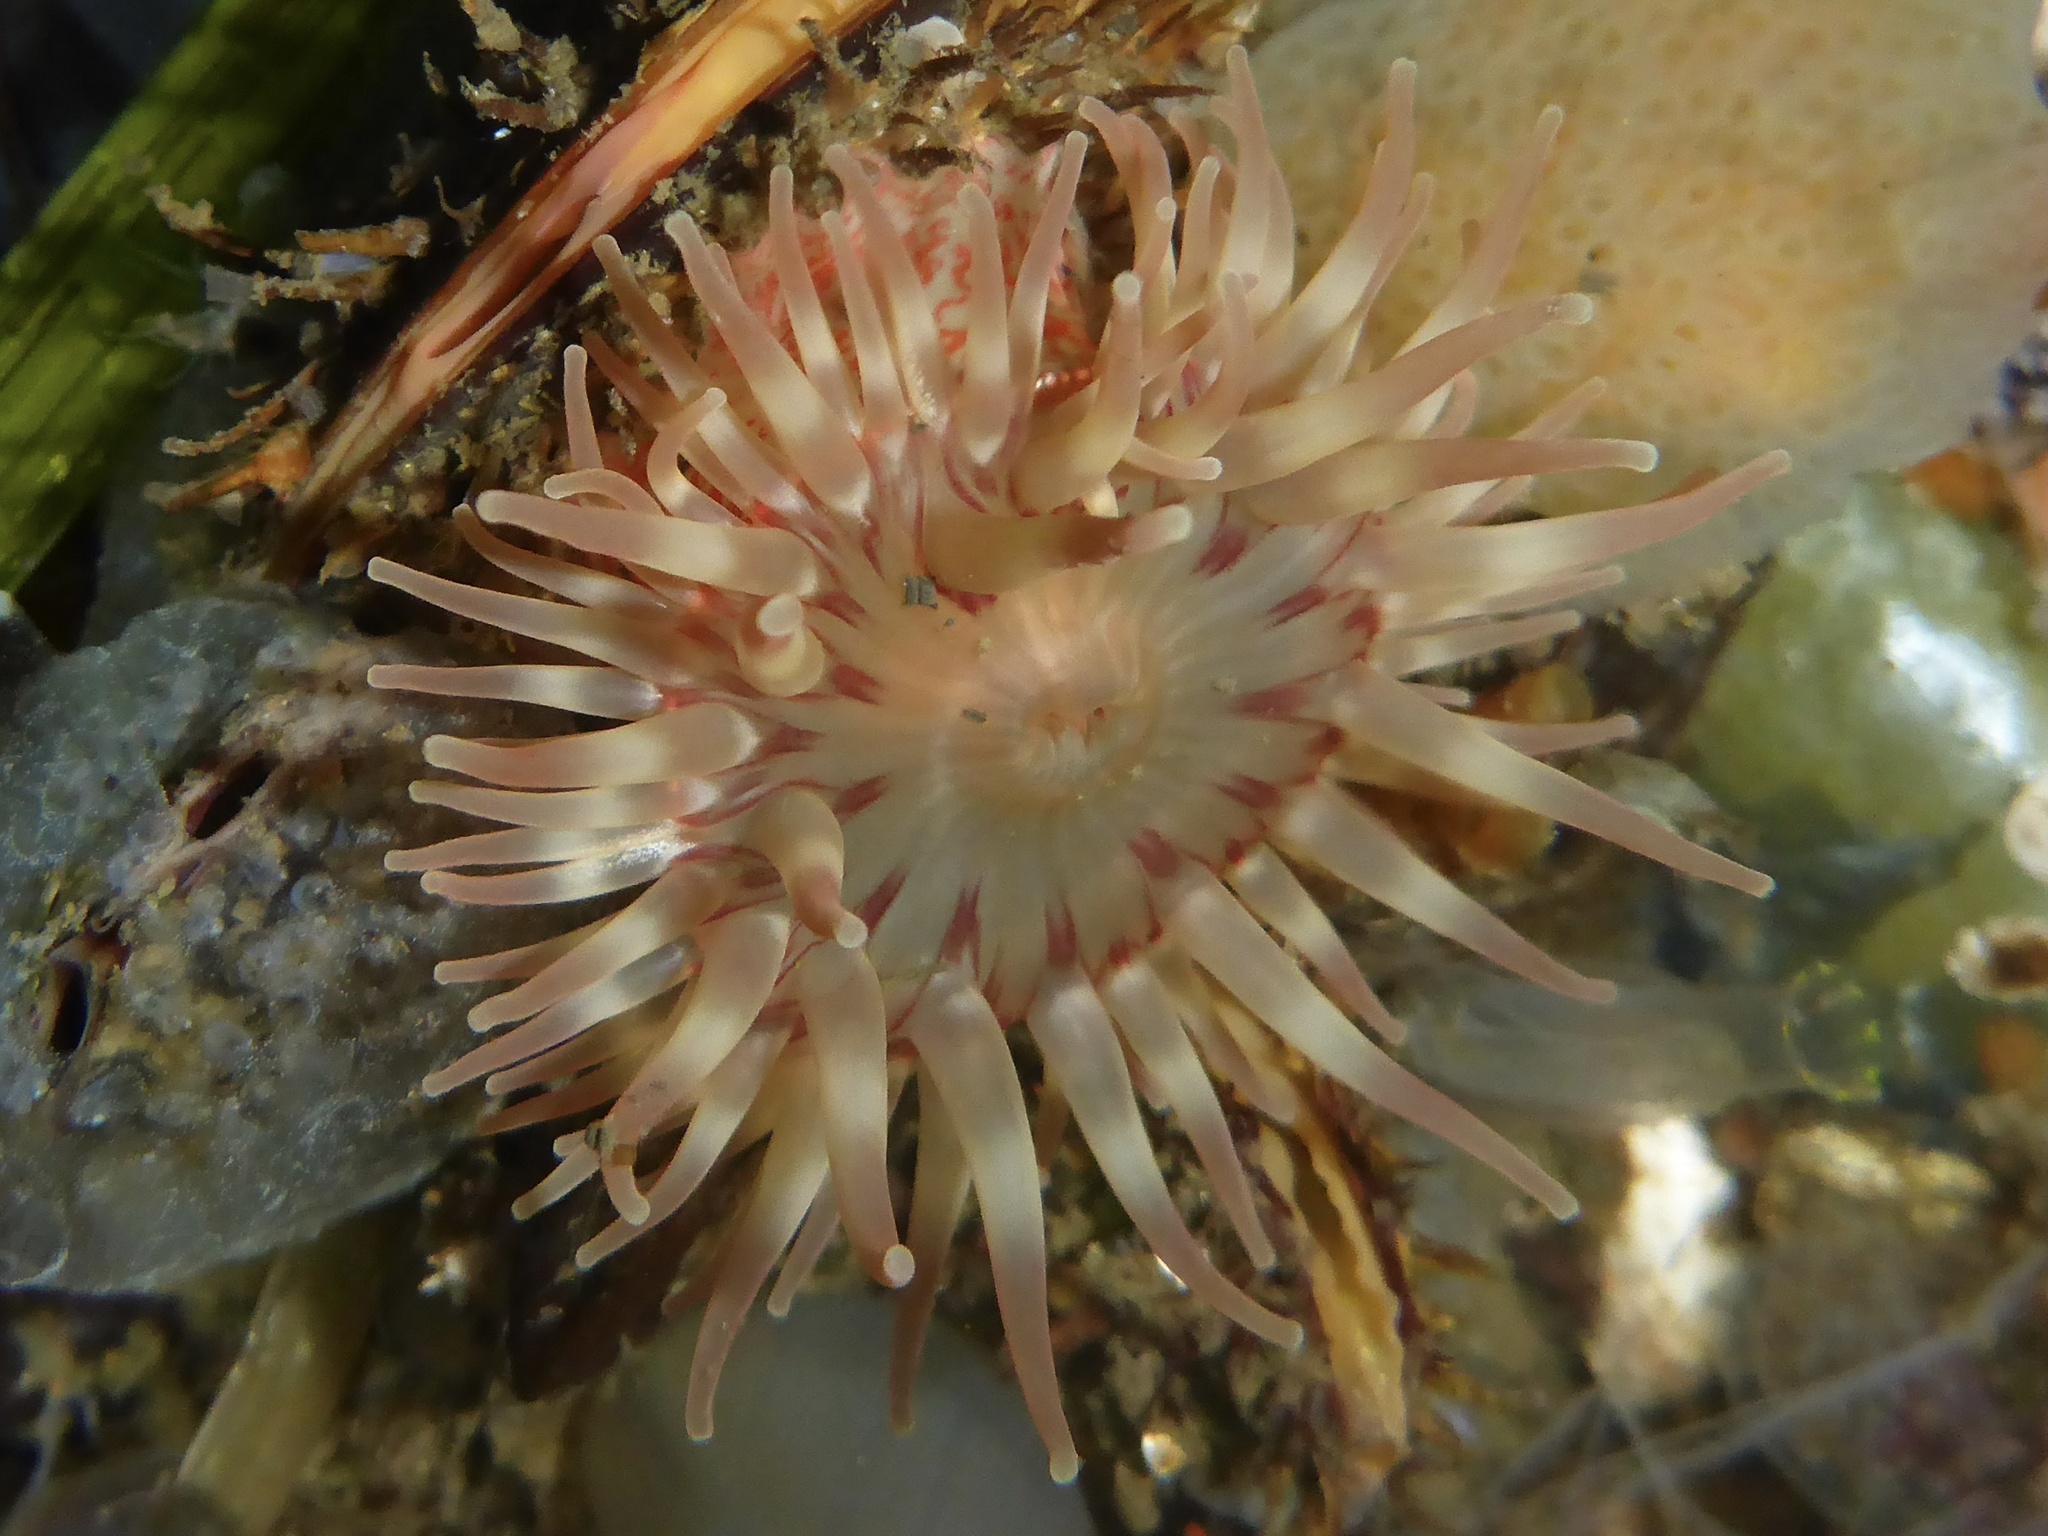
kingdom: Animalia
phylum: Cnidaria
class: Anthozoa
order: Actiniaria
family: Actiniidae
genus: Urticina
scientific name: Urticina grebelnyi
